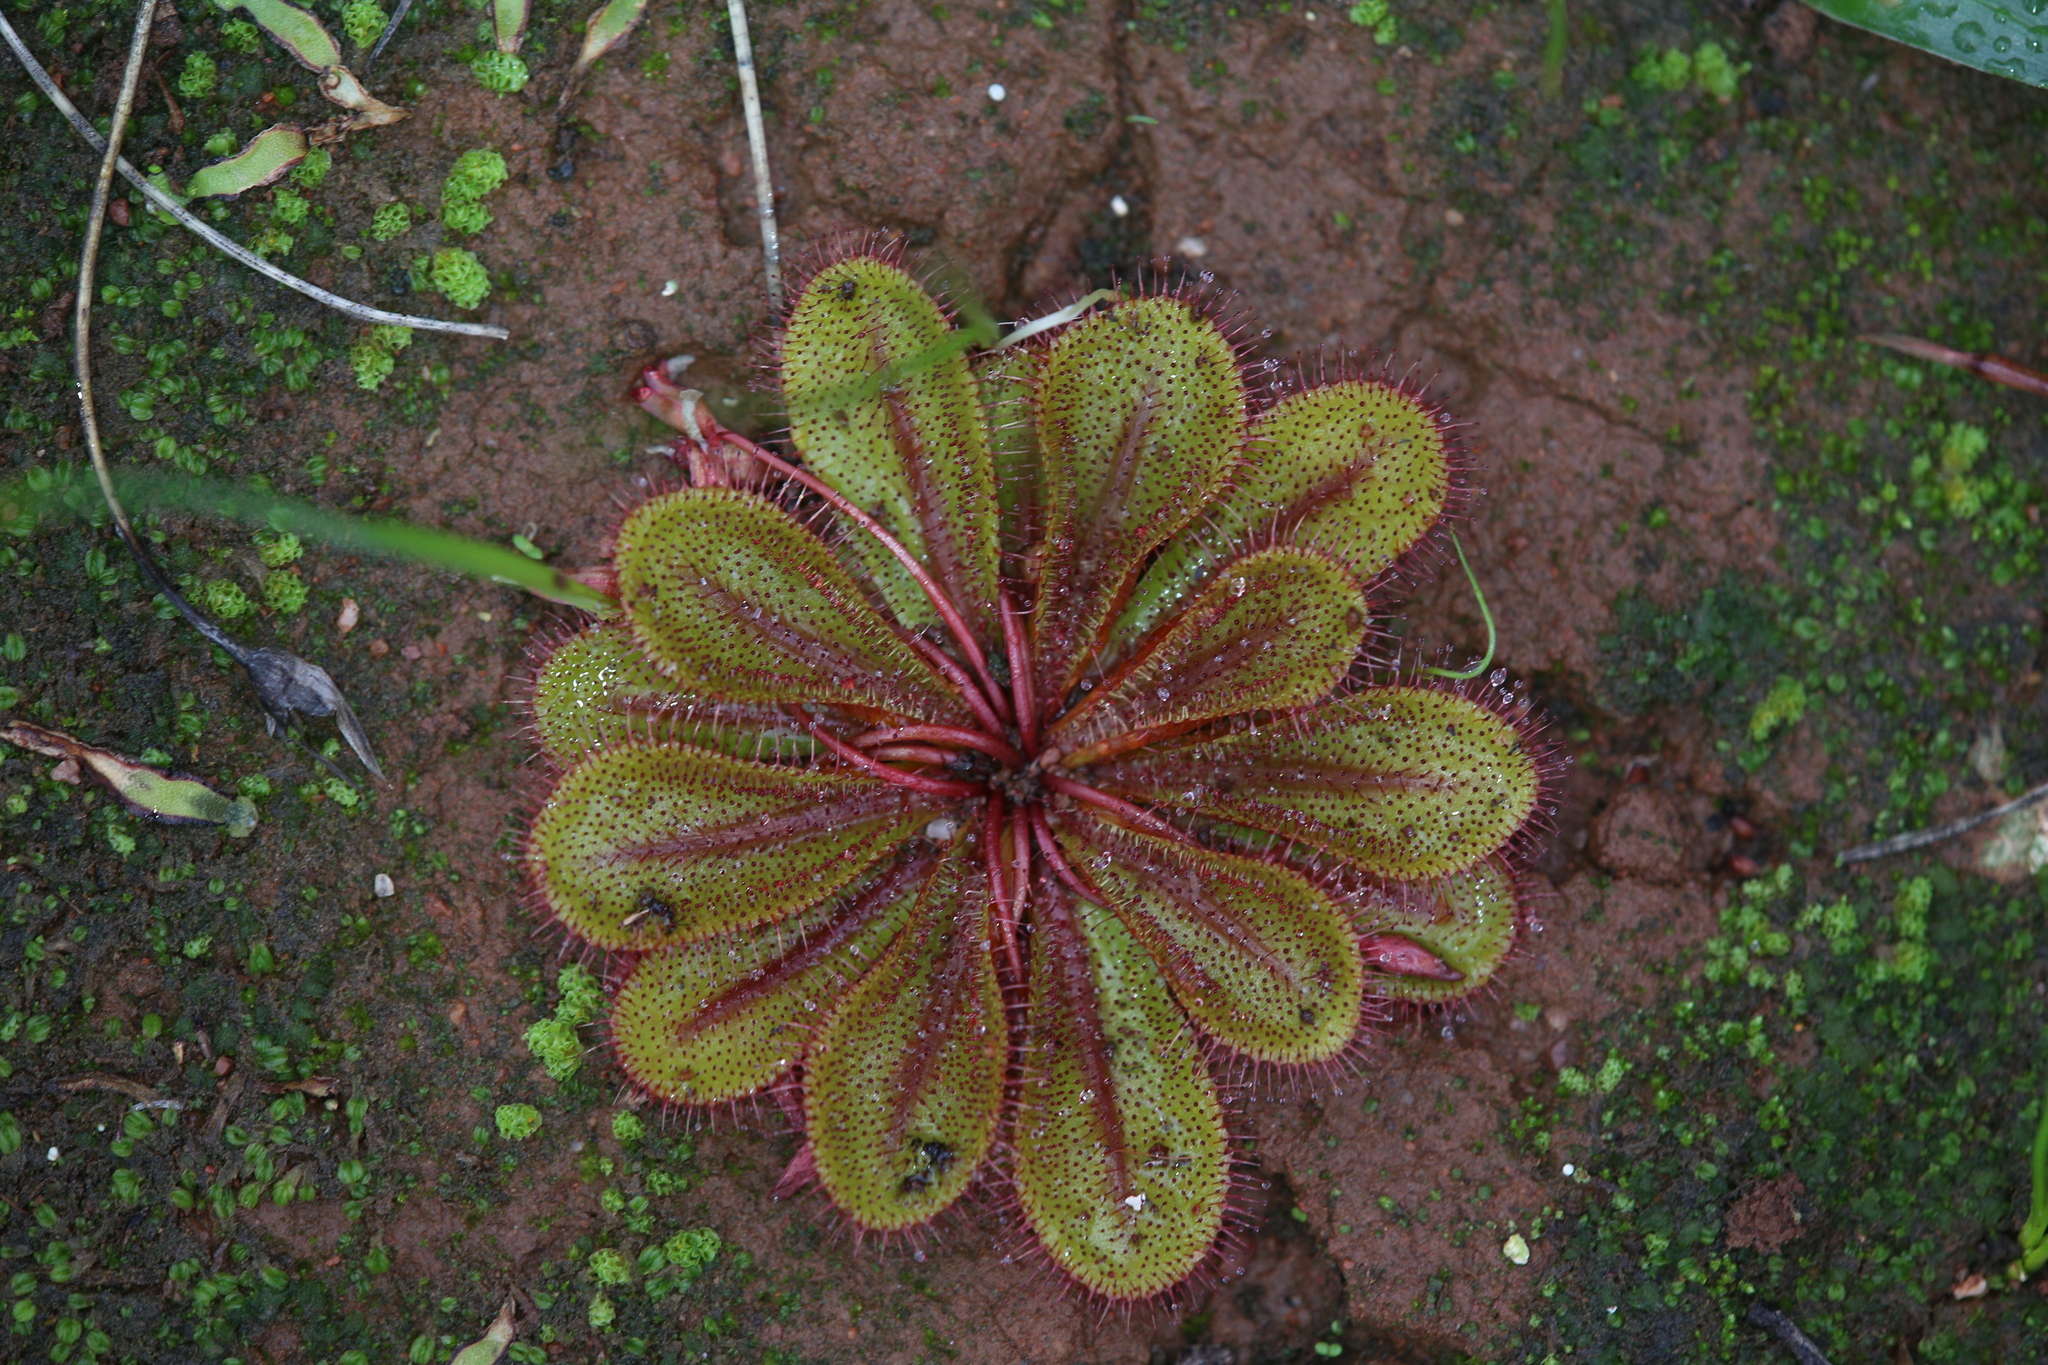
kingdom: Plantae
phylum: Tracheophyta
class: Magnoliopsida
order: Caryophyllales
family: Droseraceae
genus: Drosera
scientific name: Drosera bulbosa
